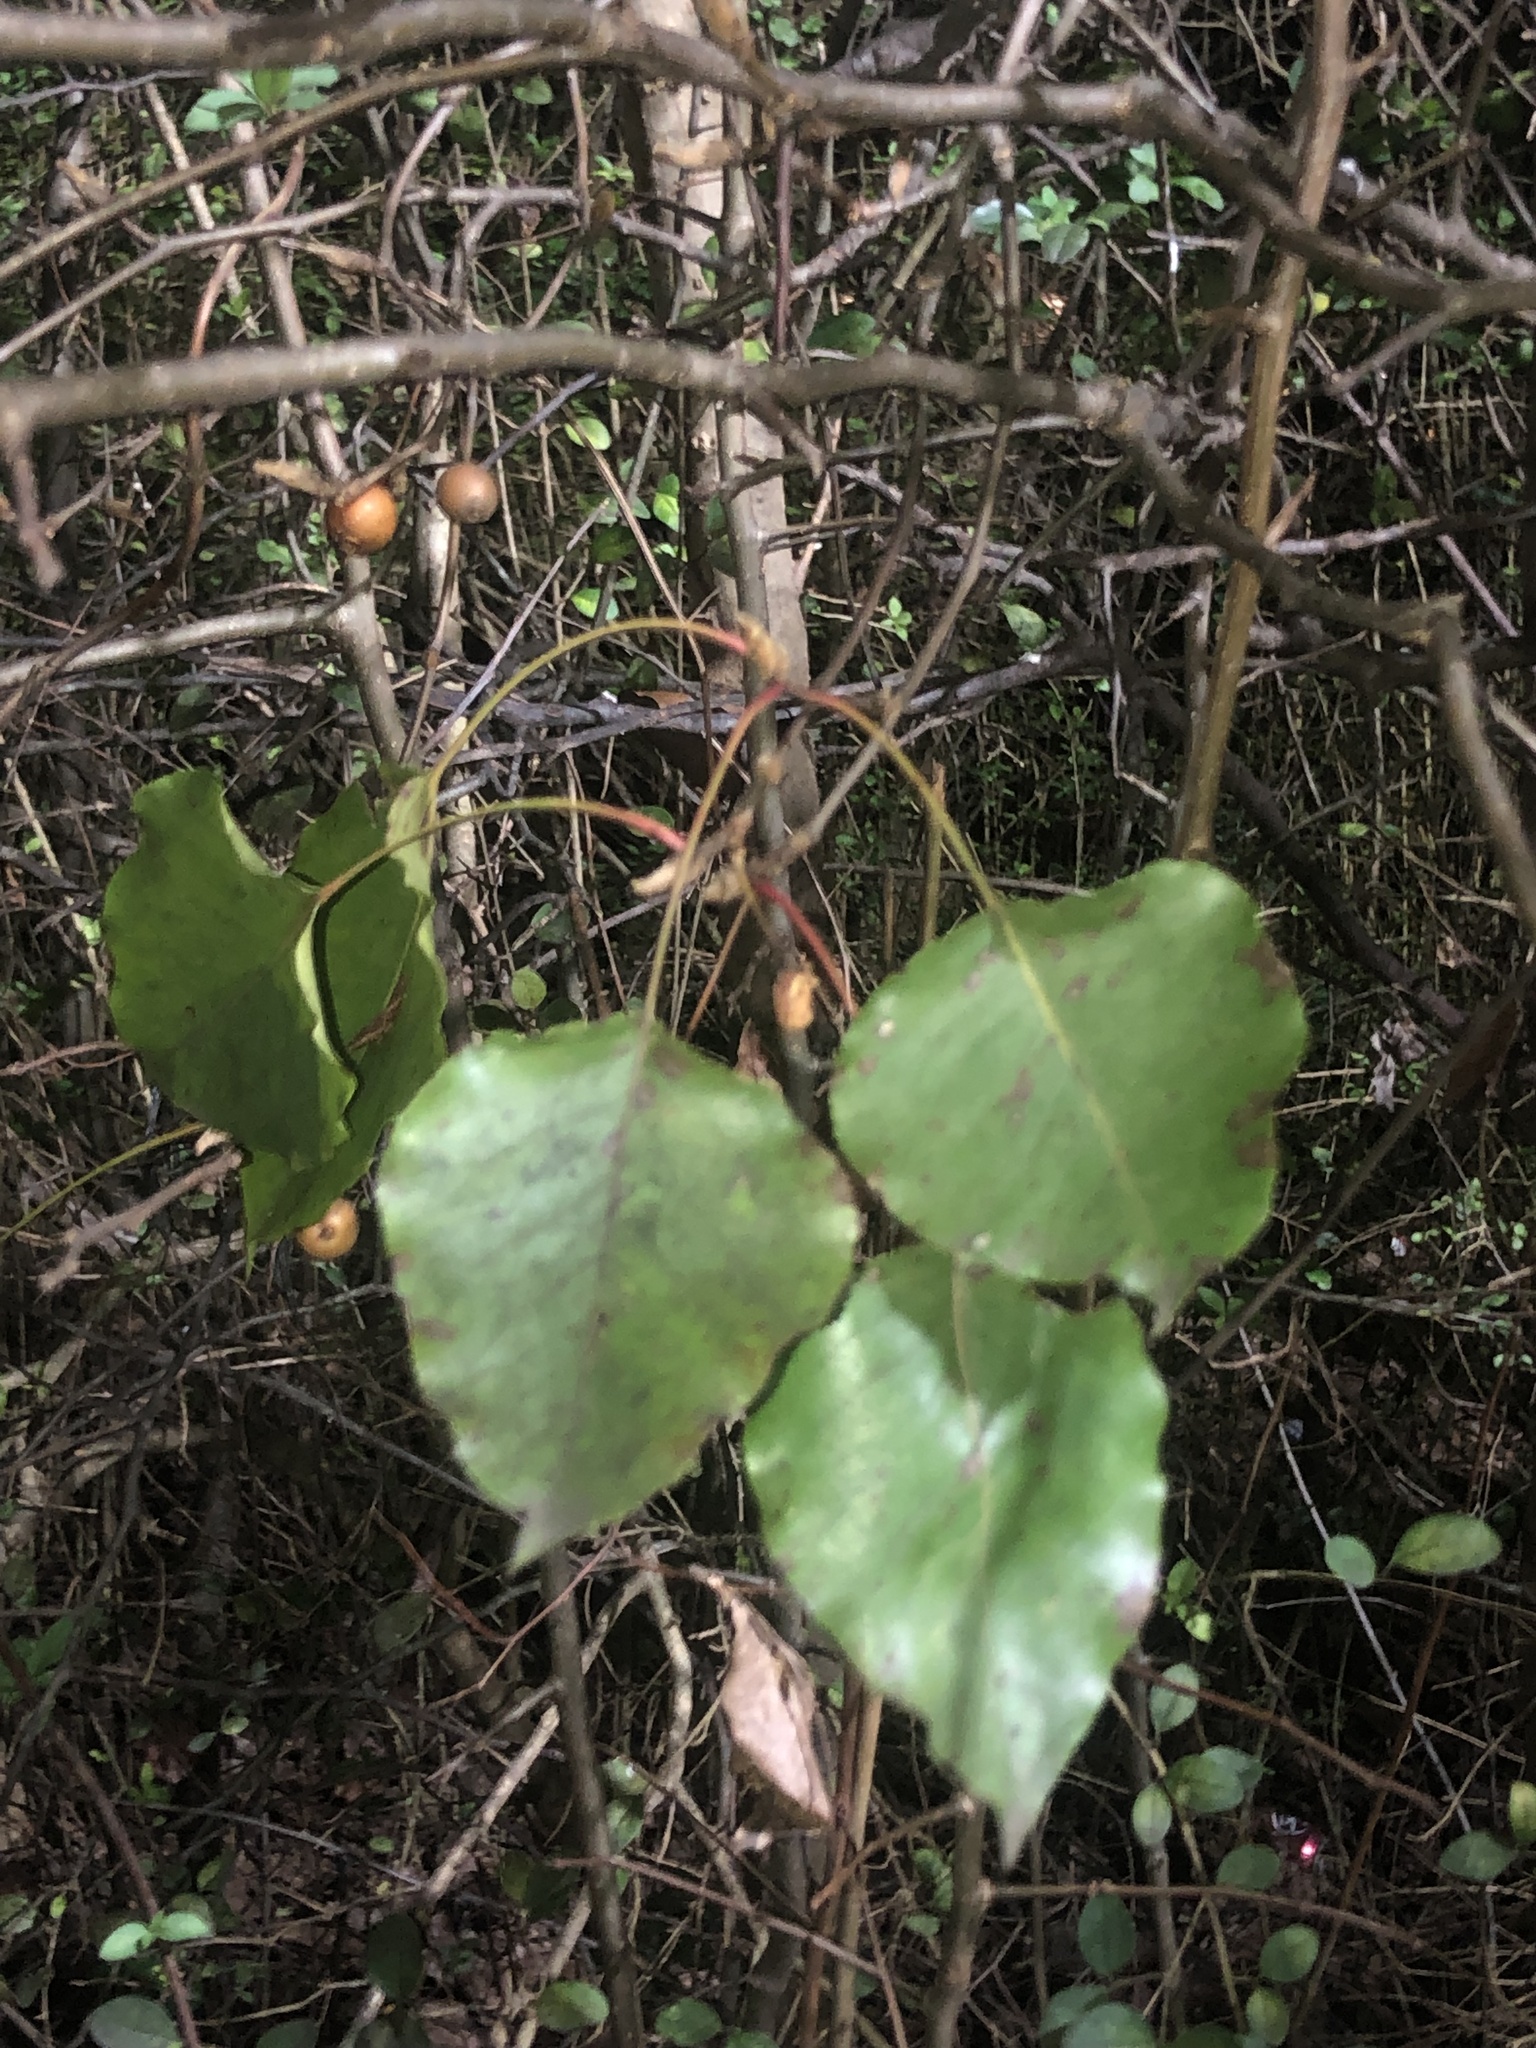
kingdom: Plantae
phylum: Tracheophyta
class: Magnoliopsida
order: Rosales
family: Rosaceae
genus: Pyrus
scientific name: Pyrus calleryana
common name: Callery pear
